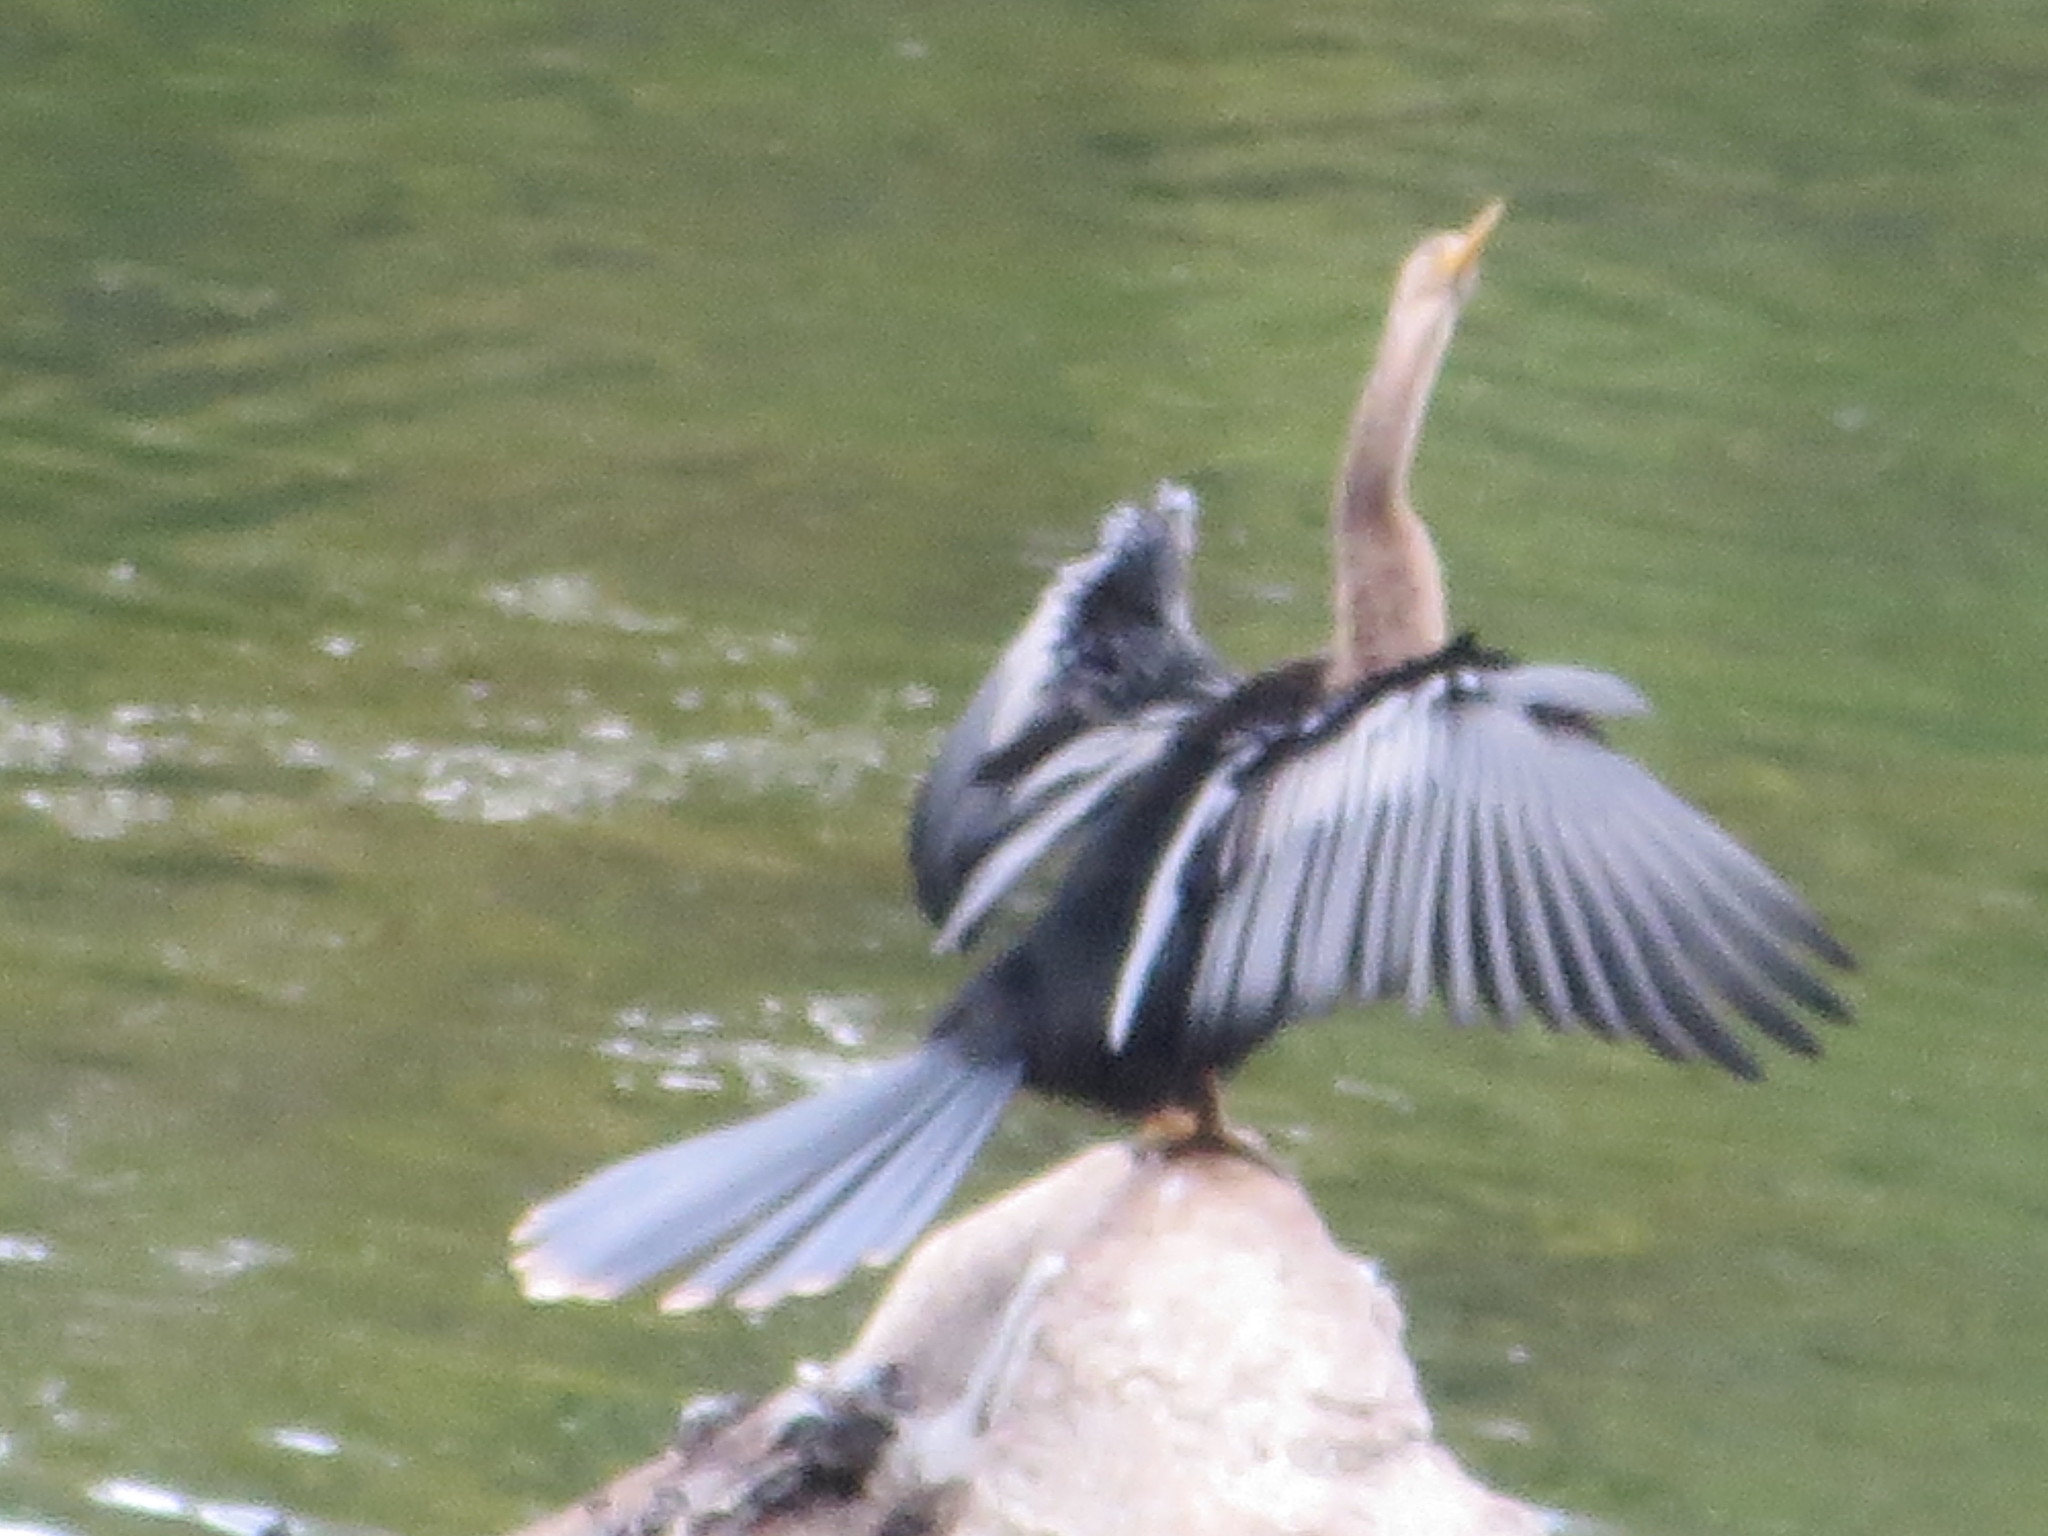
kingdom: Animalia
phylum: Chordata
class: Aves
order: Suliformes
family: Anhingidae
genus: Anhinga
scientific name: Anhinga anhinga
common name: Anhinga
